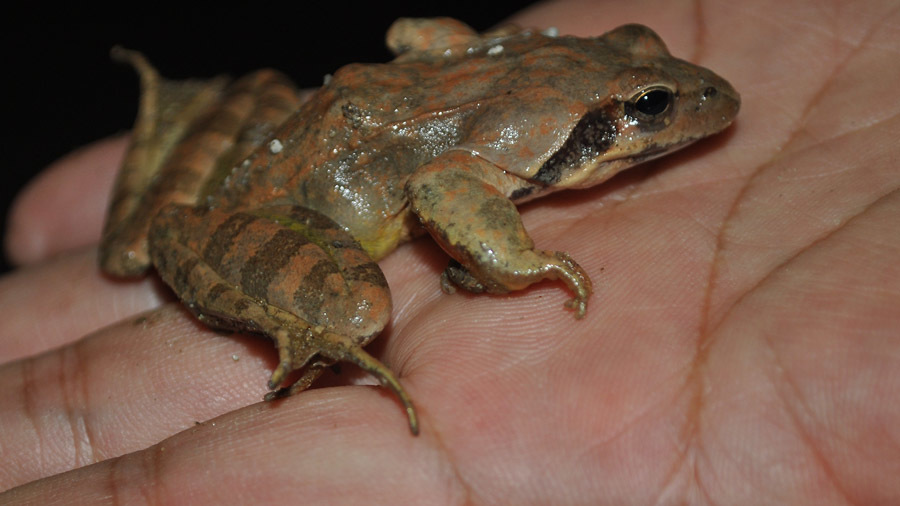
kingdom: Animalia
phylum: Chordata
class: Amphibia
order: Anura
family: Ranidae
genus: Rana
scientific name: Rana uenoi
